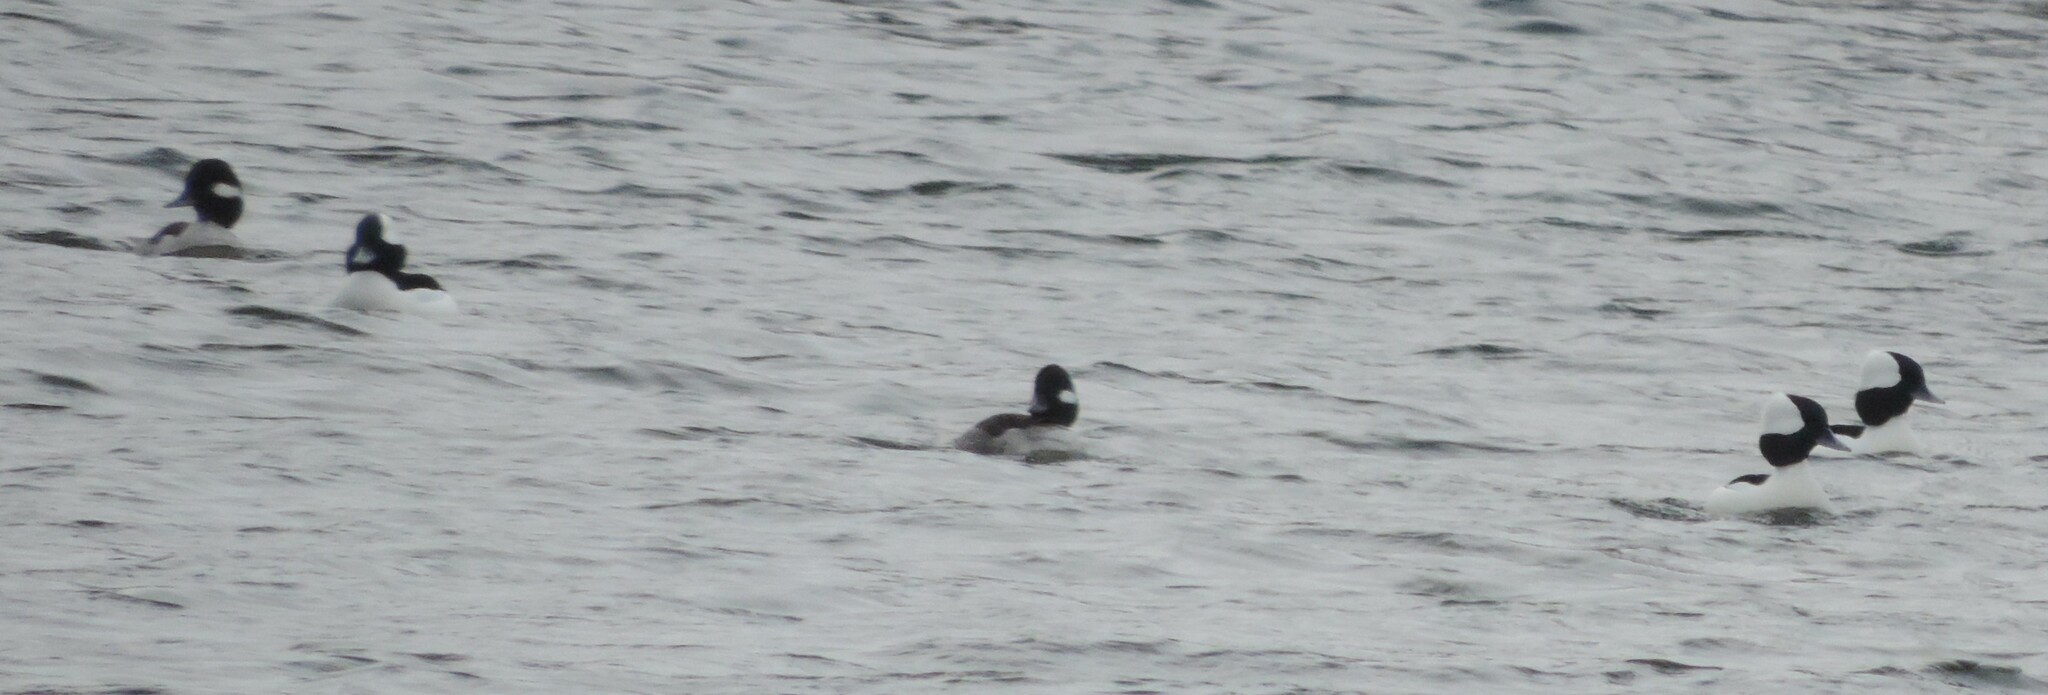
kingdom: Animalia
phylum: Chordata
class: Aves
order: Anseriformes
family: Anatidae
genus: Bucephala
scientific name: Bucephala albeola
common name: Bufflehead
